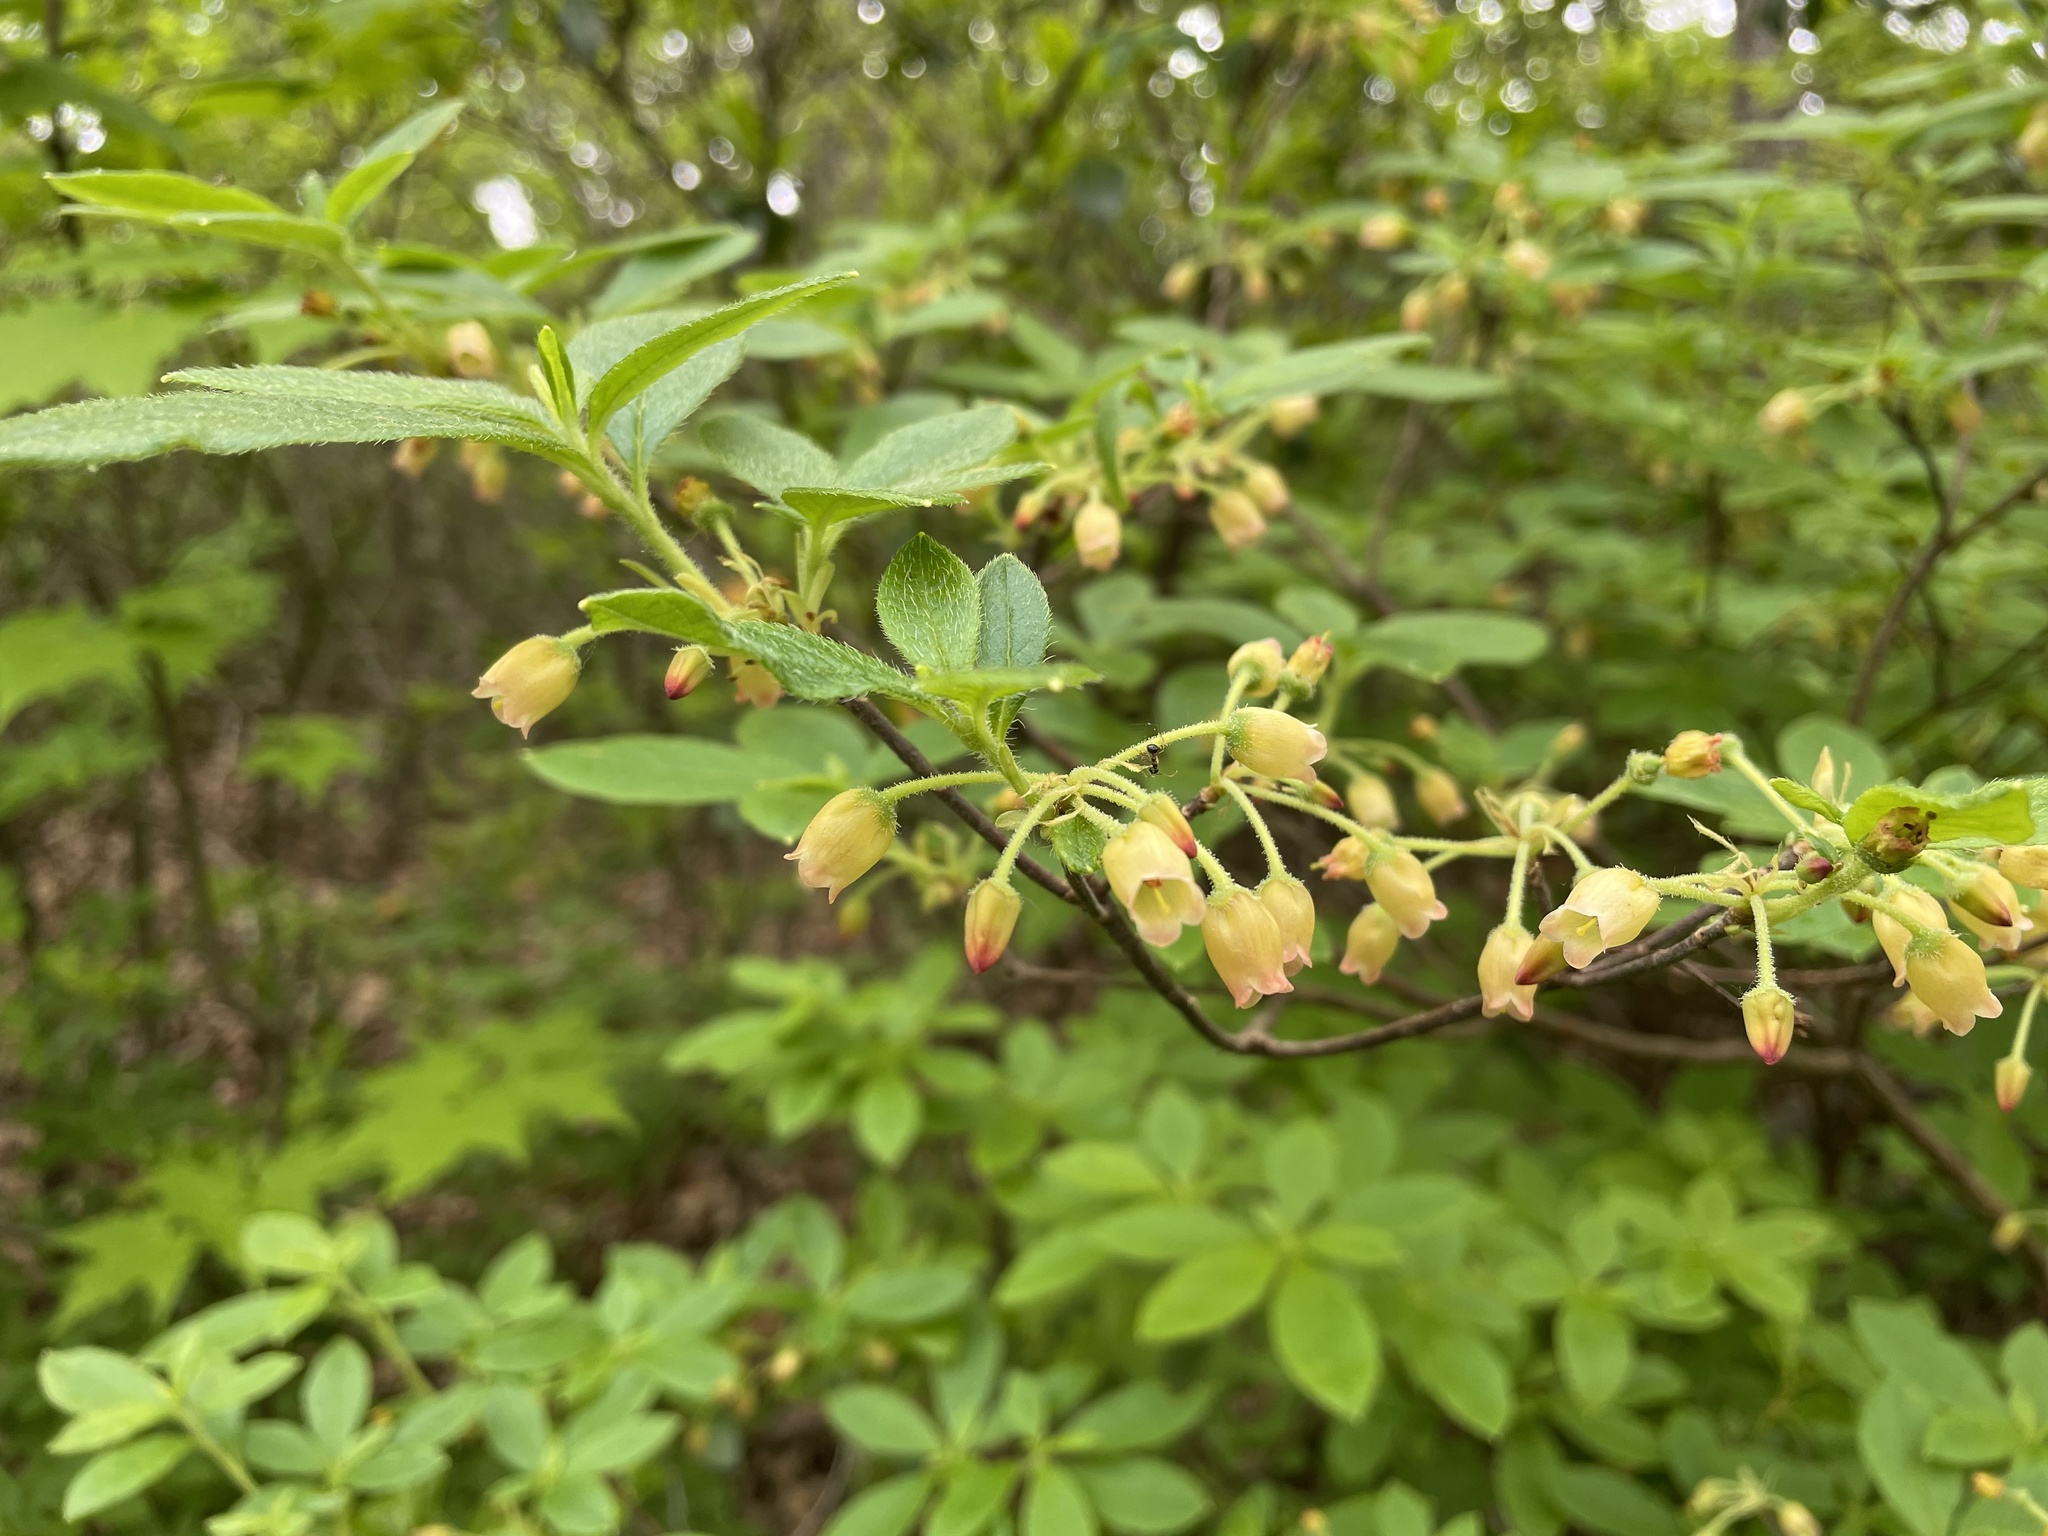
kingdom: Plantae
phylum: Tracheophyta
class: Magnoliopsida
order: Ericales
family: Ericaceae
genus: Rhododendron
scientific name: Rhododendron pilosum
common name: Hairy minniebush
